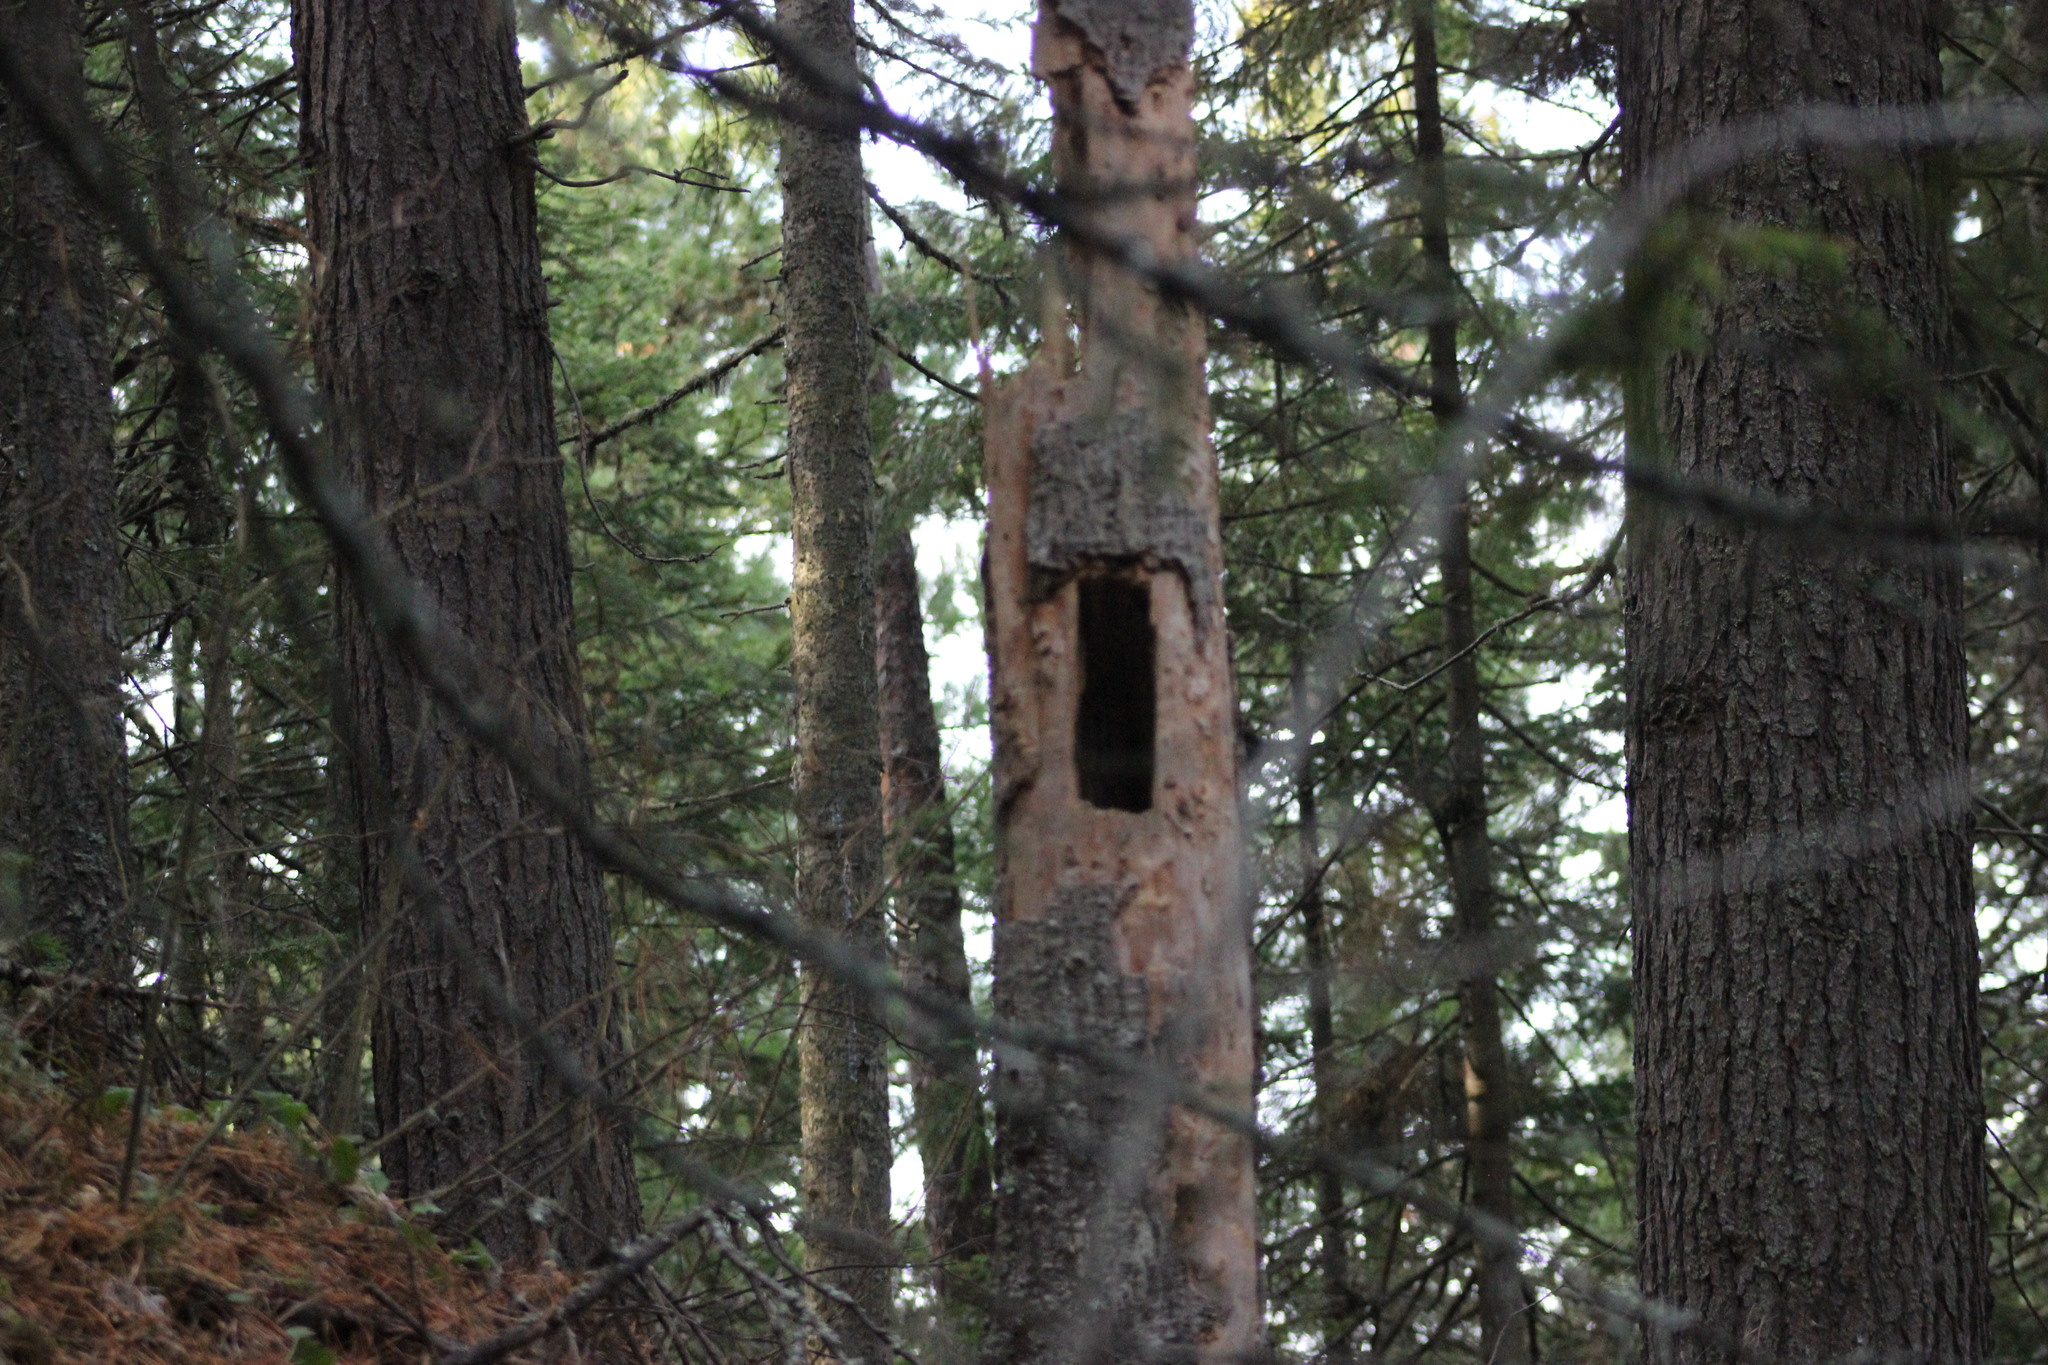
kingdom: Animalia
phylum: Chordata
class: Aves
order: Piciformes
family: Picidae
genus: Dryocopus
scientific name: Dryocopus martius
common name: Black woodpecker
